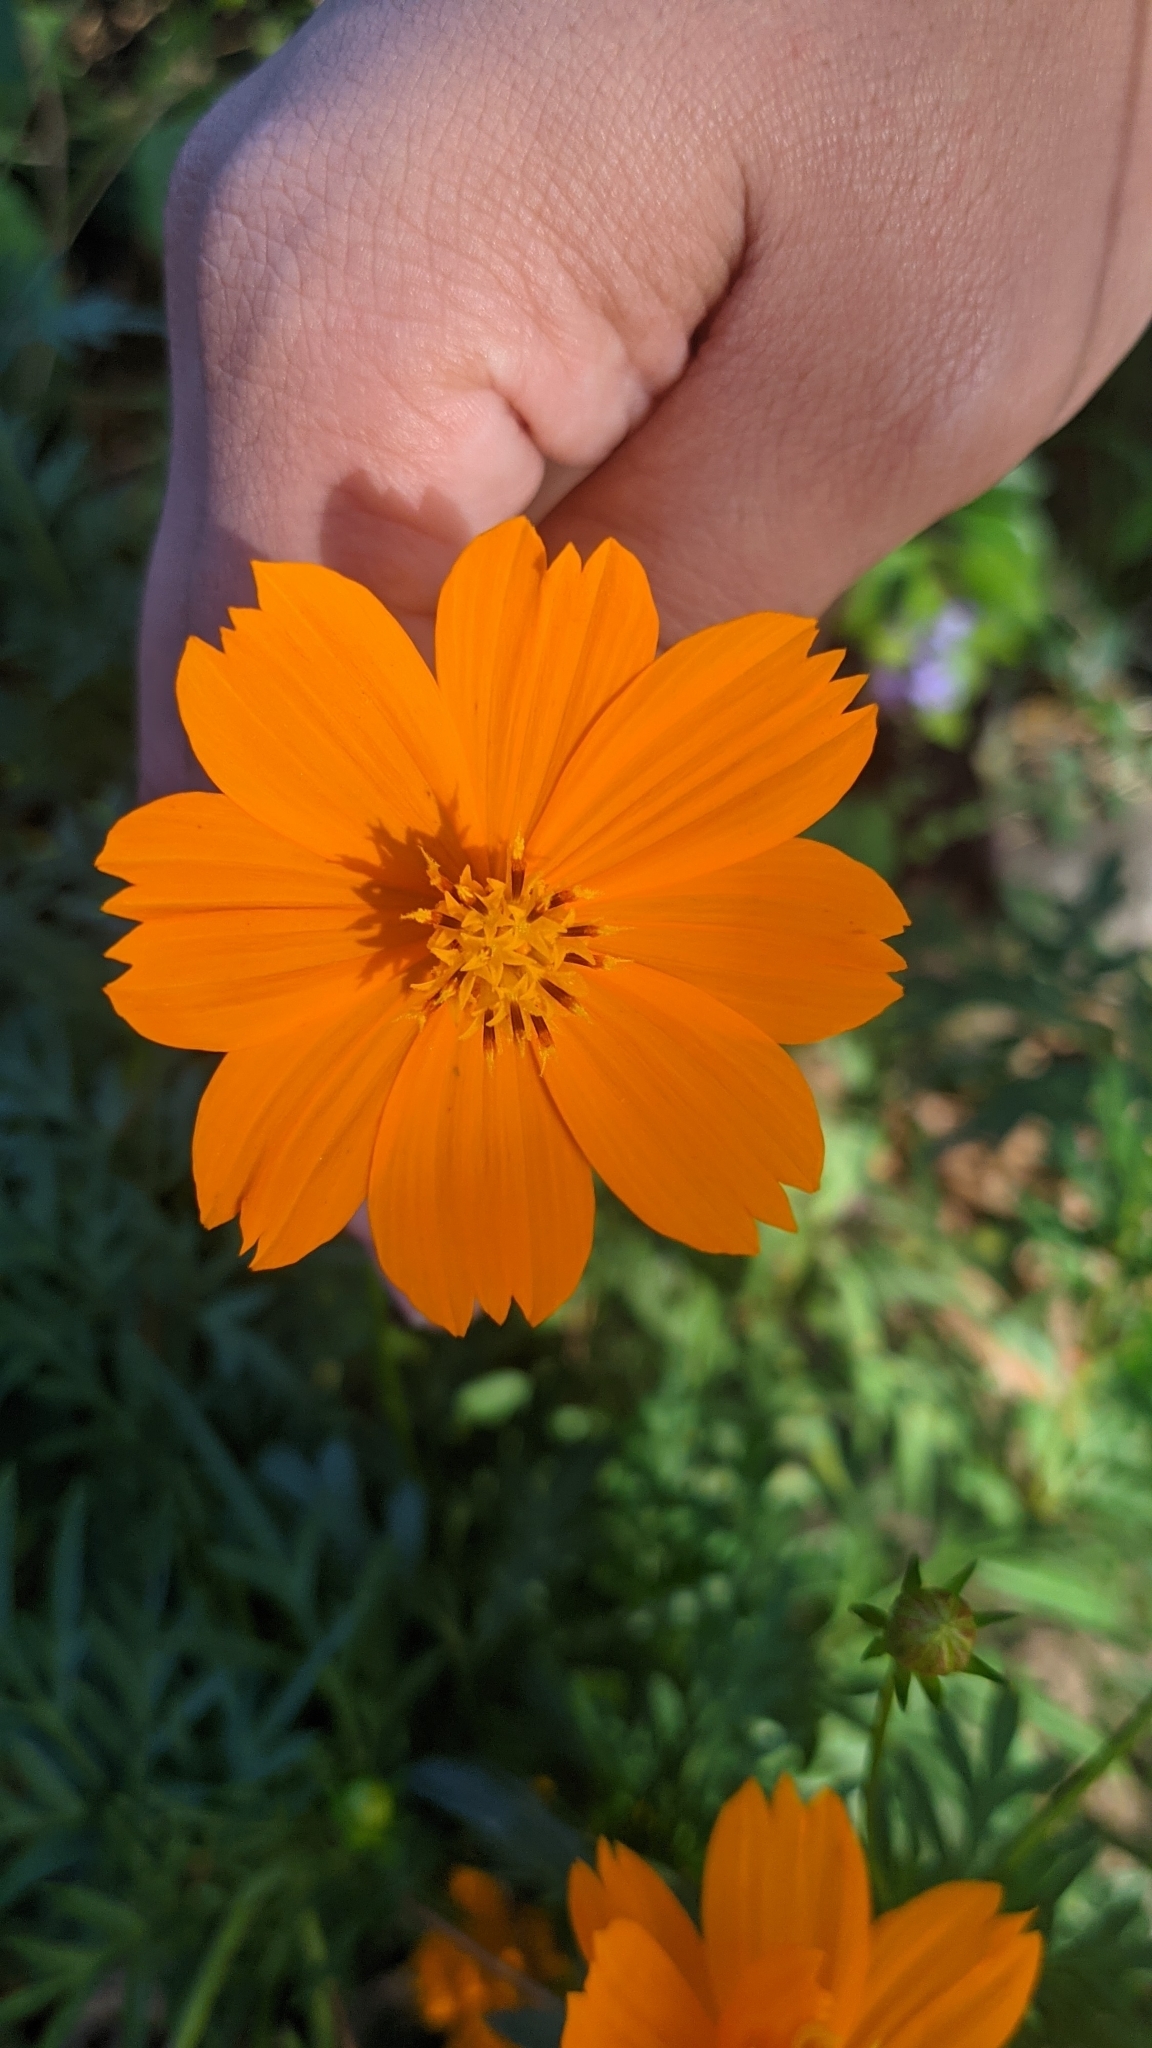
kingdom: Plantae
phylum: Tracheophyta
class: Magnoliopsida
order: Asterales
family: Asteraceae
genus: Cosmos
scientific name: Cosmos sulphureus
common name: Sulphur cosmos
